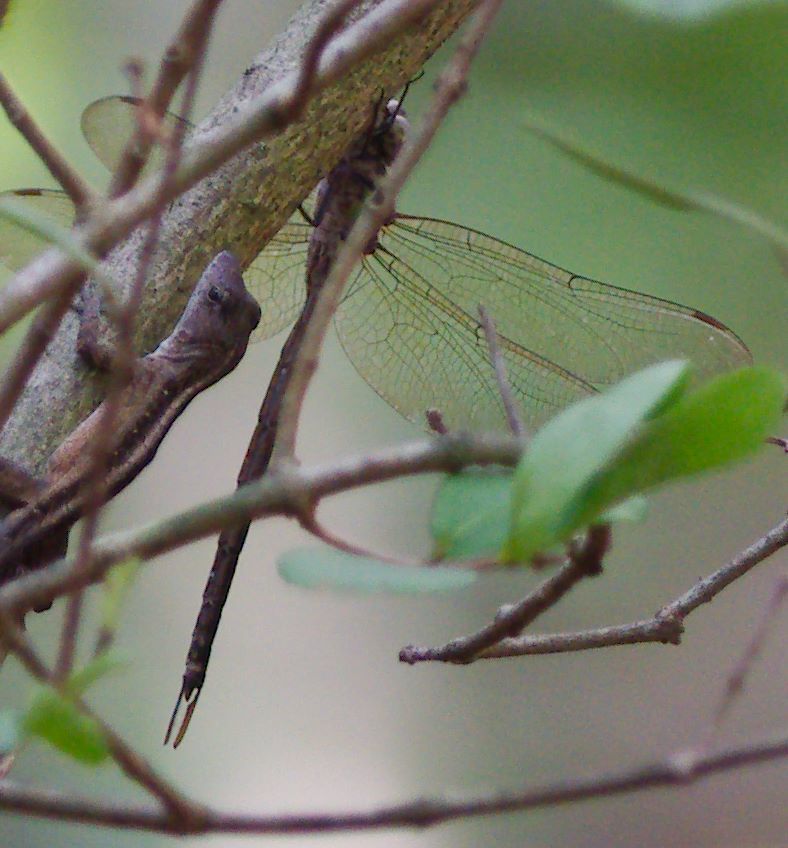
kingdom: Animalia
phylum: Arthropoda
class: Insecta
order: Odonata
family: Aeshnidae
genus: Triacanthagyna
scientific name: Triacanthagyna trifida
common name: Phantom darner
